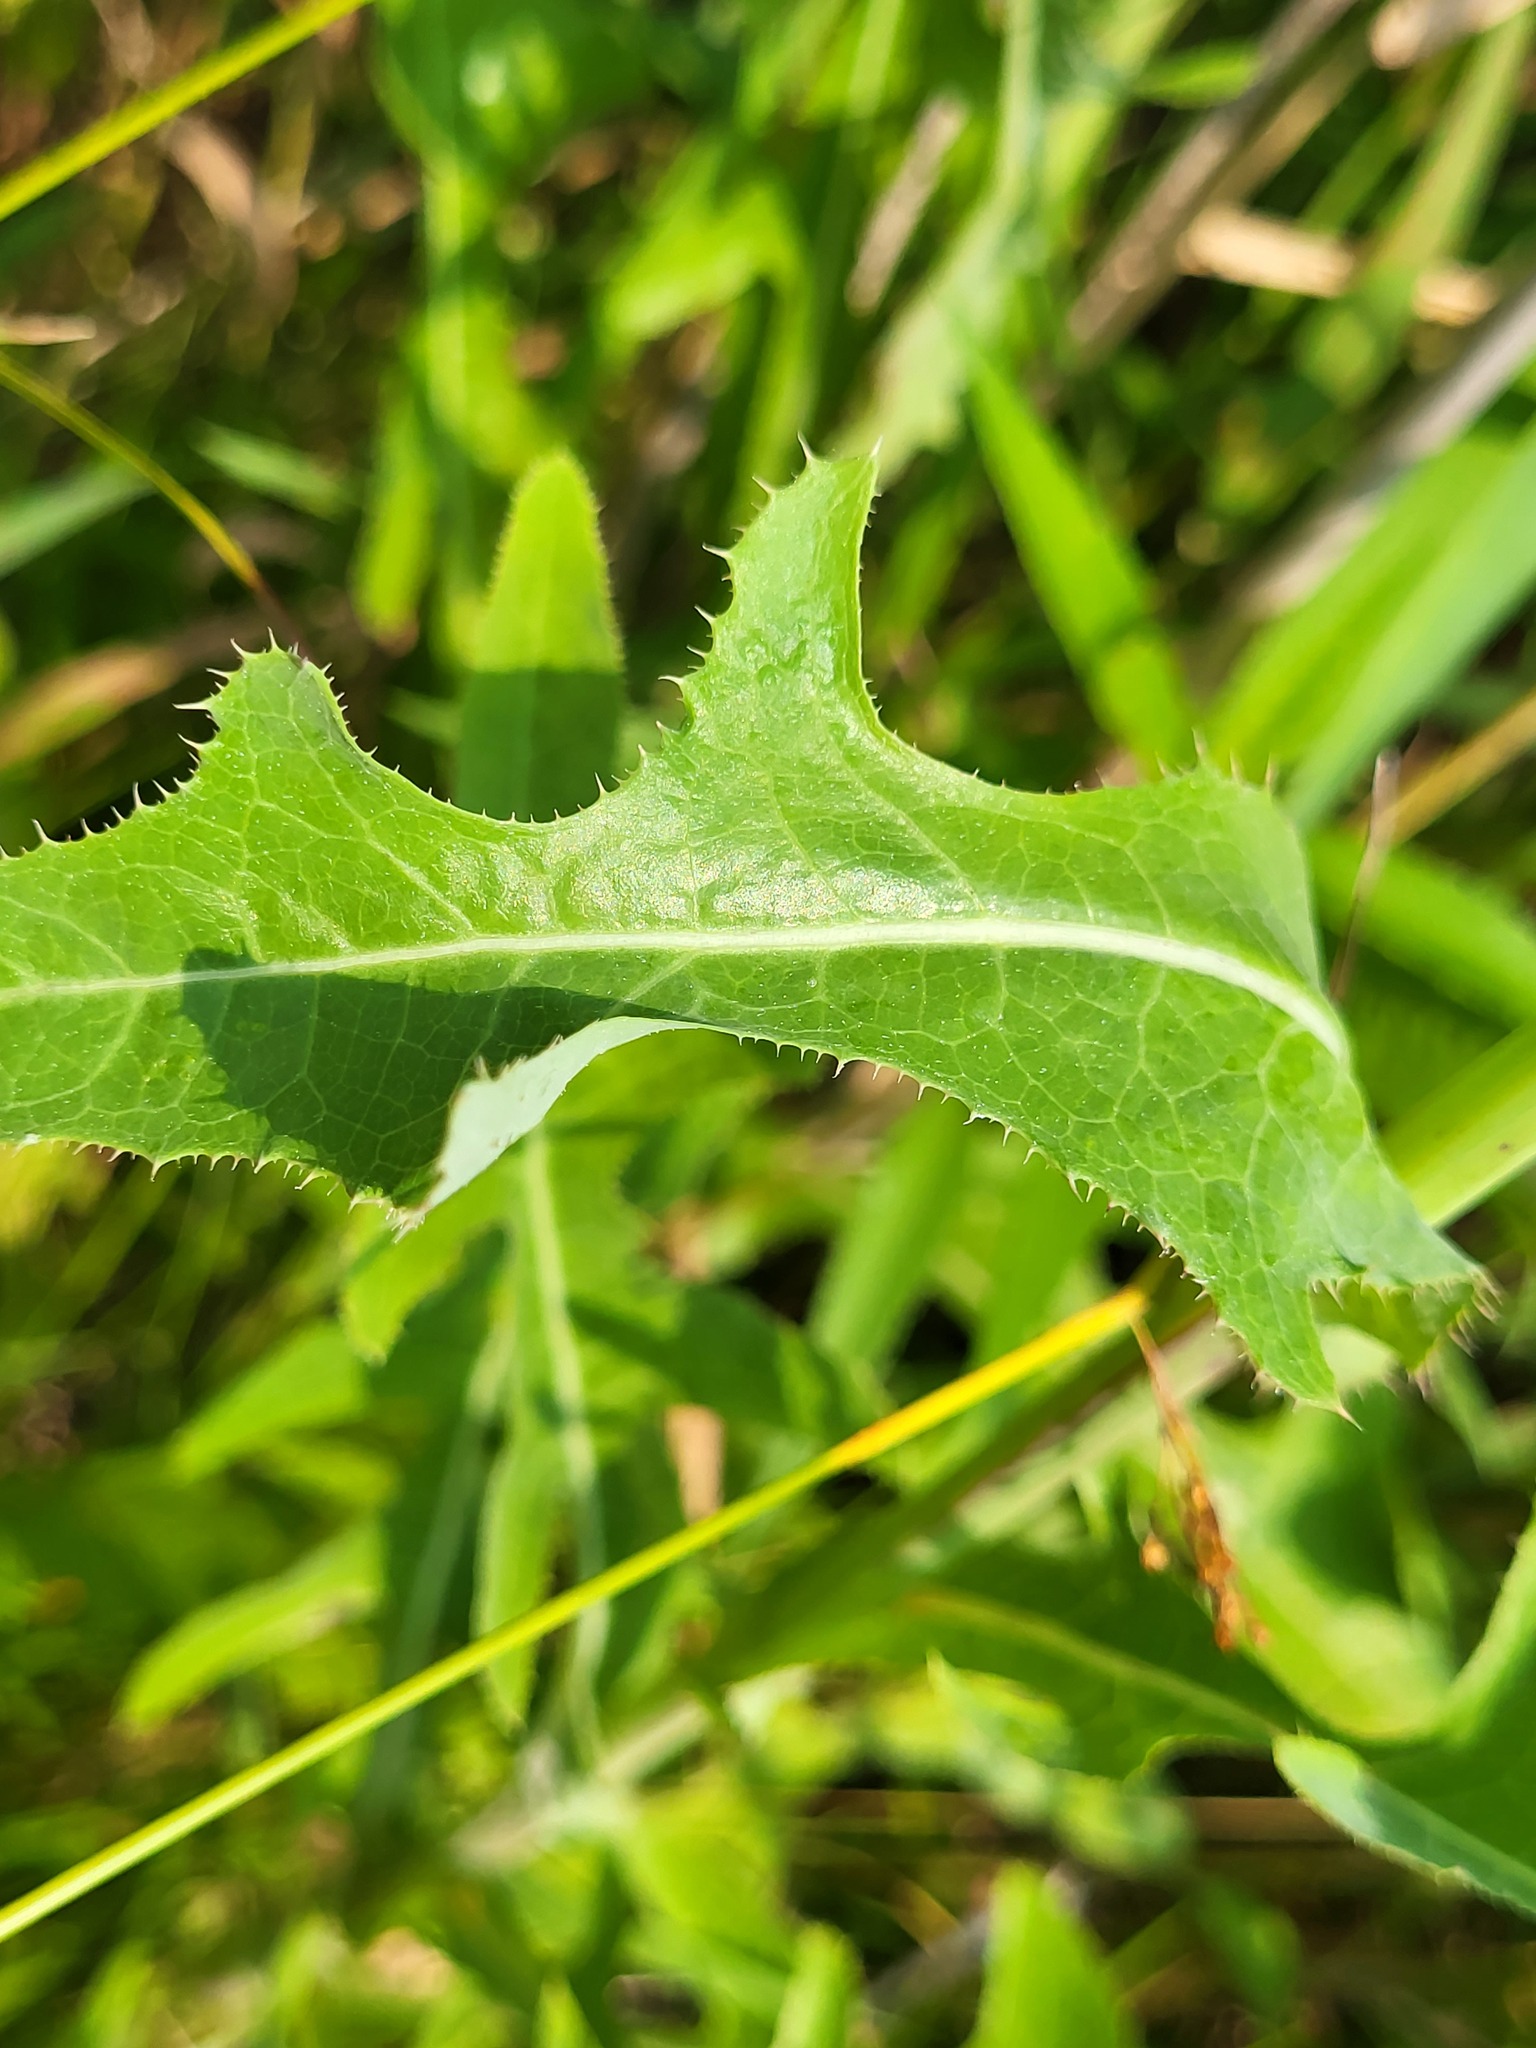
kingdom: Plantae
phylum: Tracheophyta
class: Magnoliopsida
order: Asterales
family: Asteraceae
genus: Sonchus
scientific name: Sonchus arvensis
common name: Perennial sow-thistle
